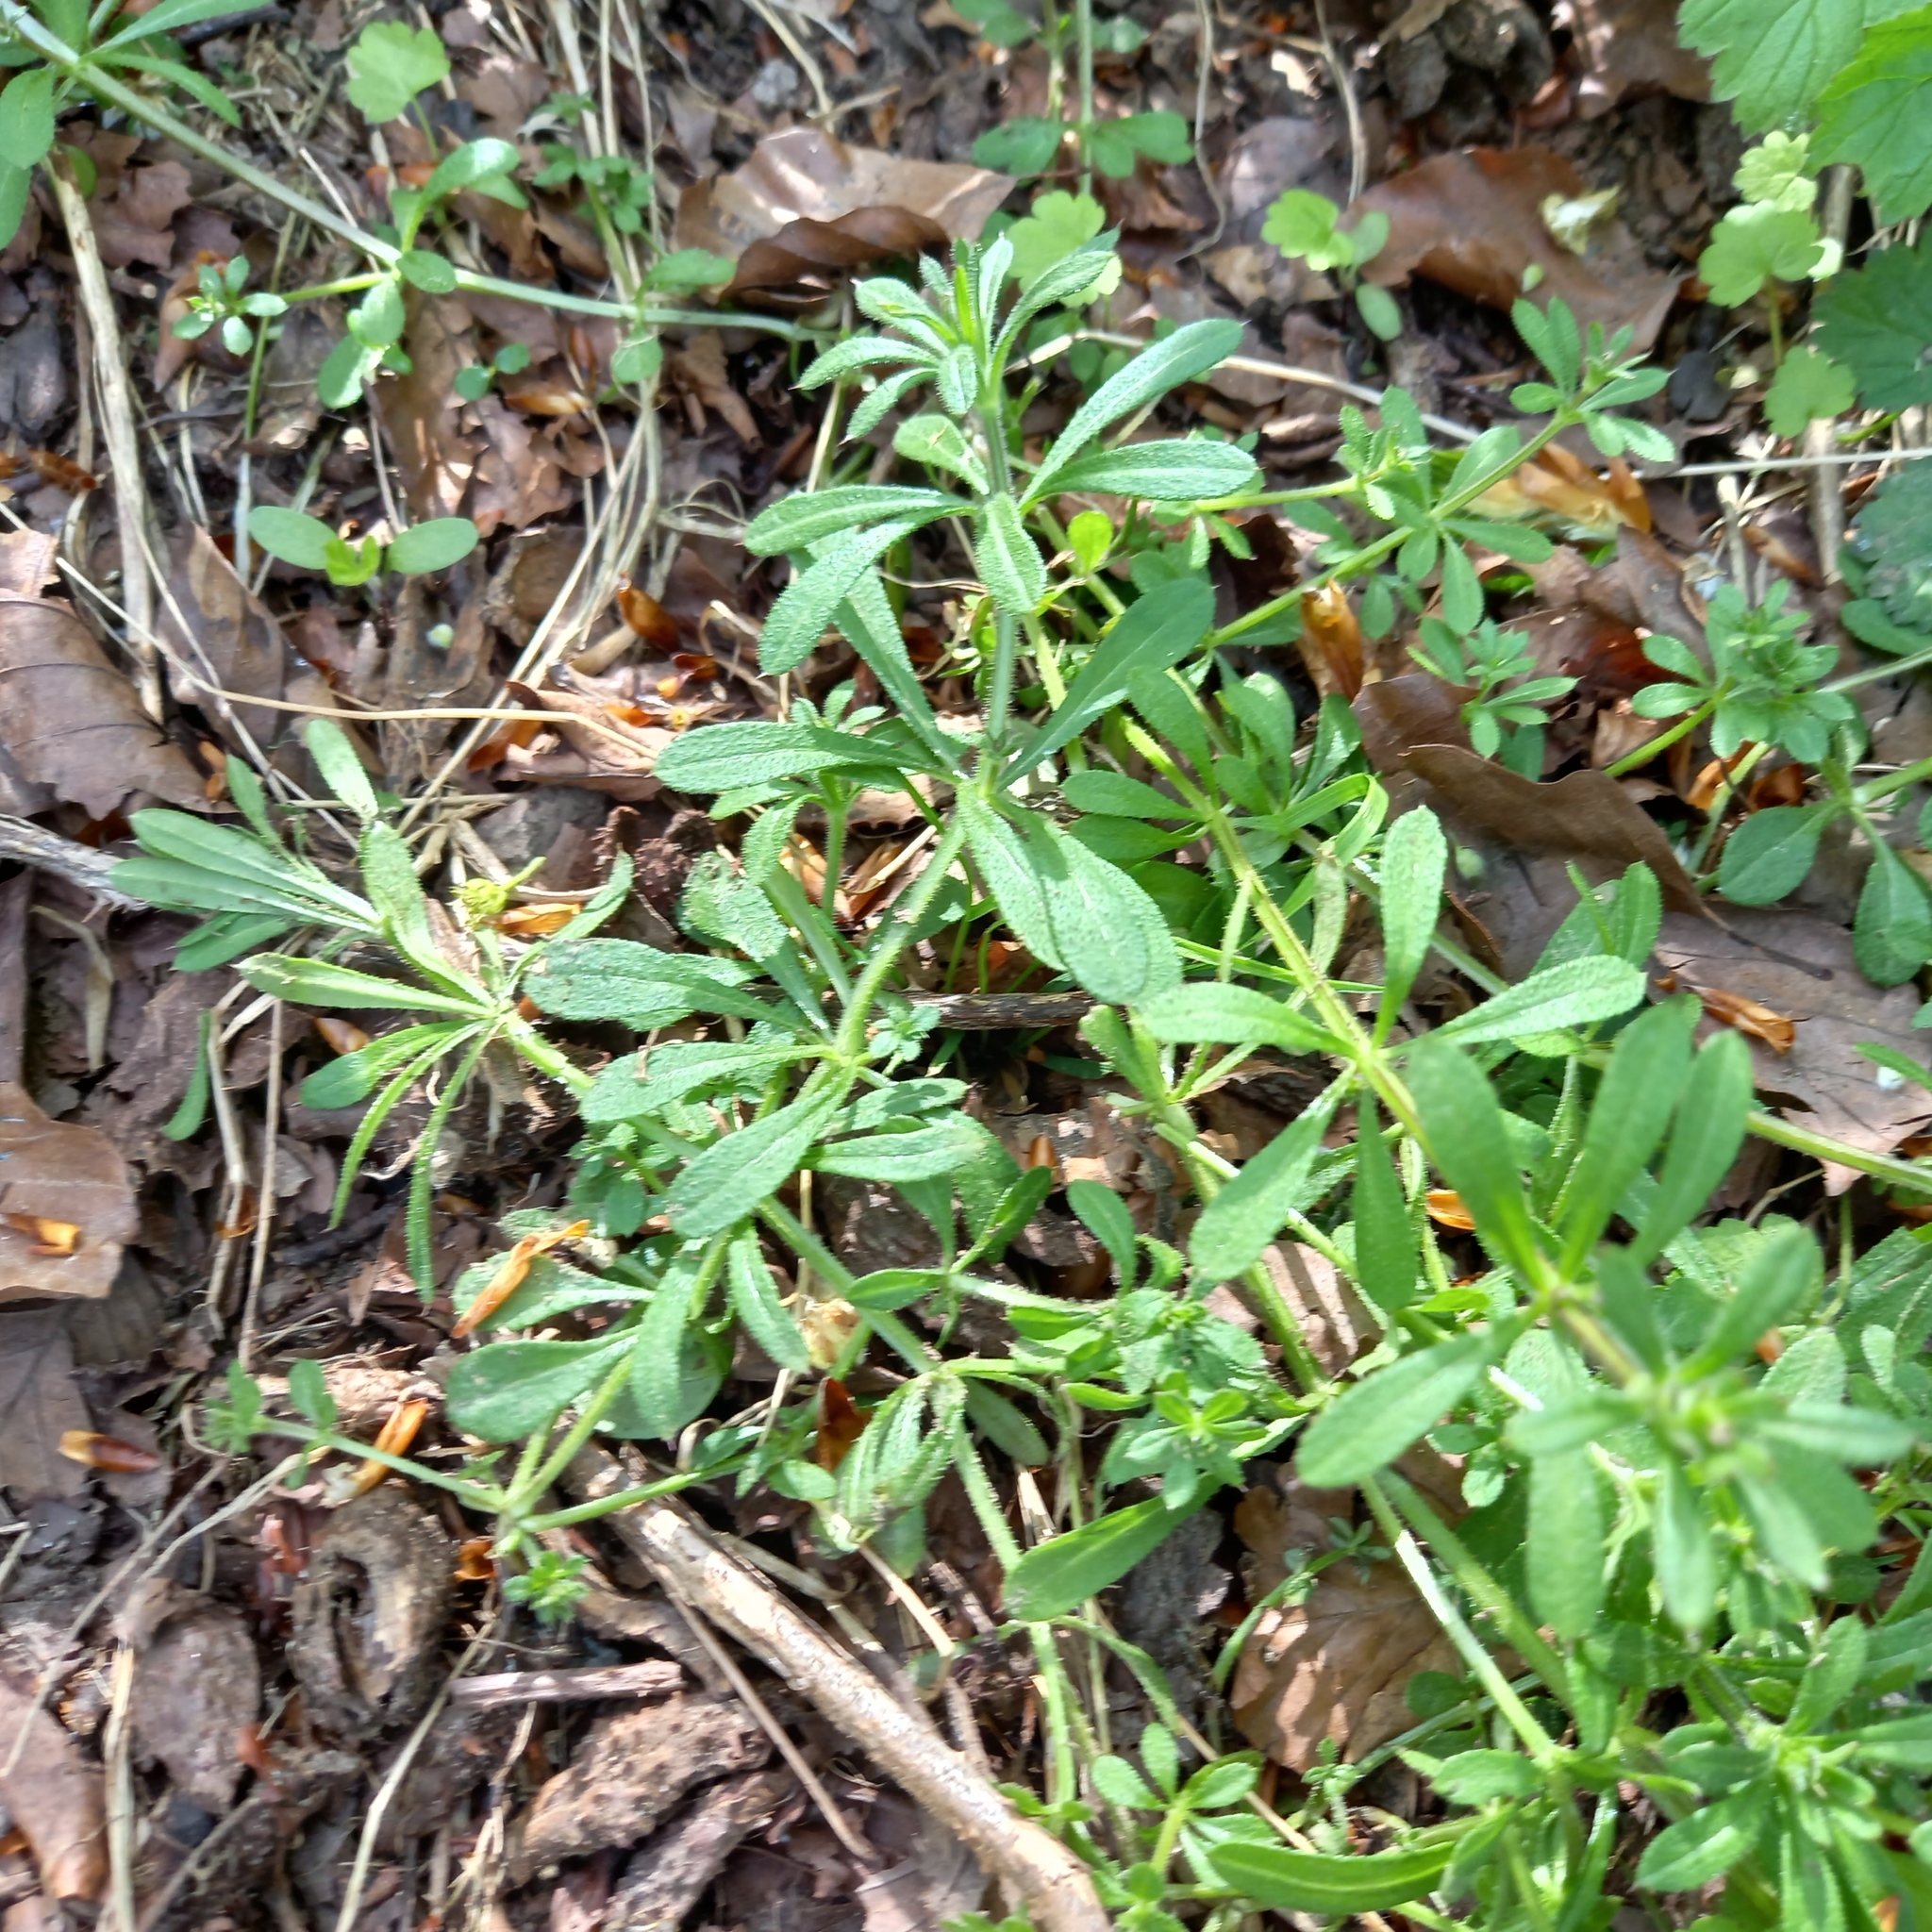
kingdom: Plantae
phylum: Tracheophyta
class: Magnoliopsida
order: Gentianales
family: Rubiaceae
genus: Galium
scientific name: Galium aparine
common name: Cleavers
